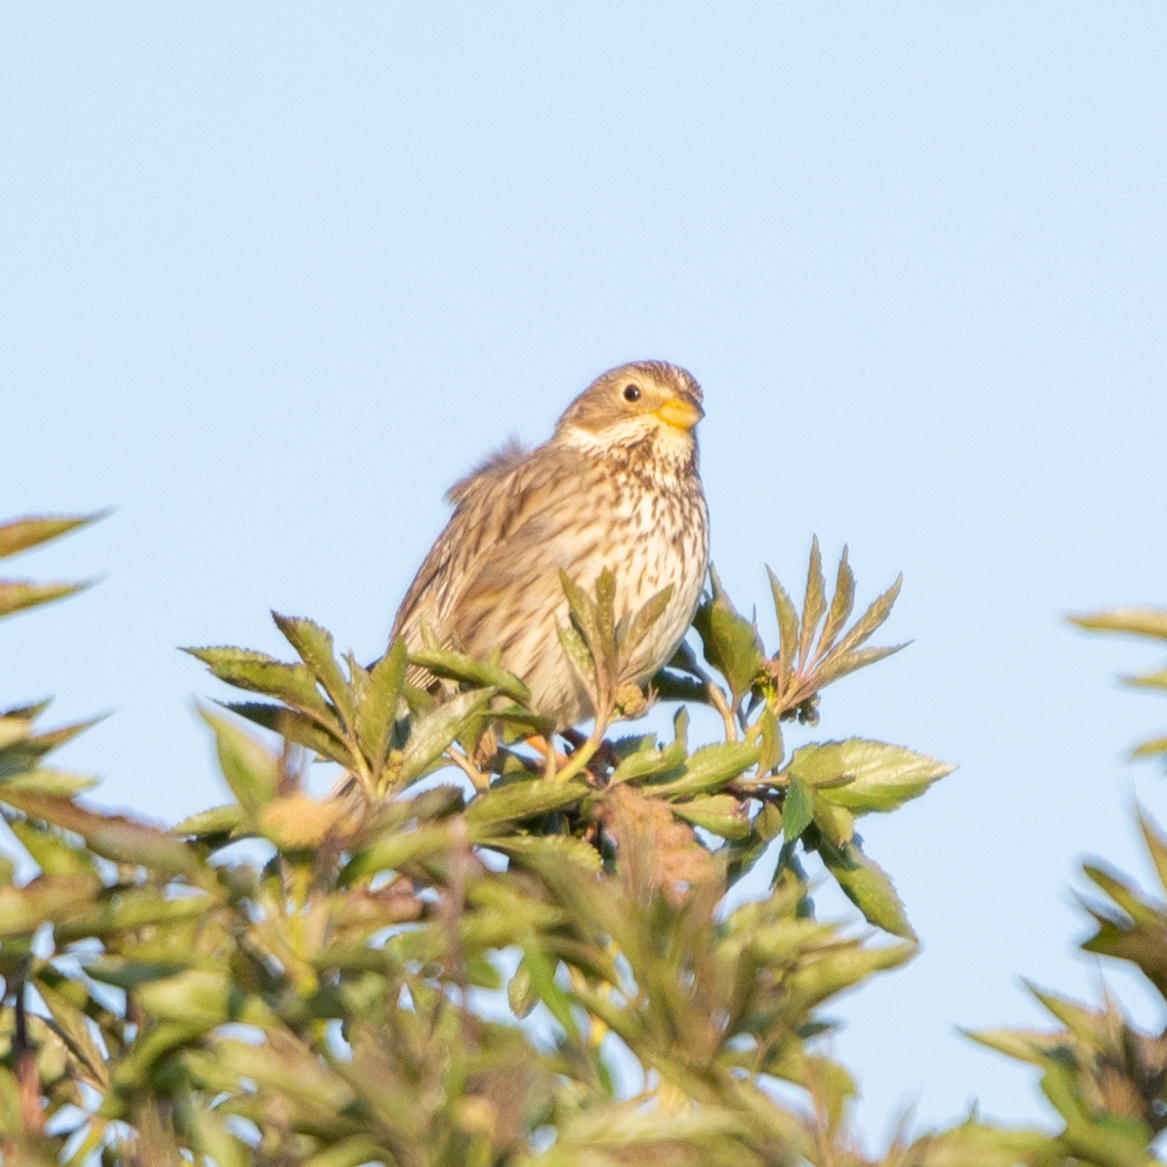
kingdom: Animalia
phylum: Chordata
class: Aves
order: Passeriformes
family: Emberizidae
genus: Emberiza
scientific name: Emberiza calandra
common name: Corn bunting
